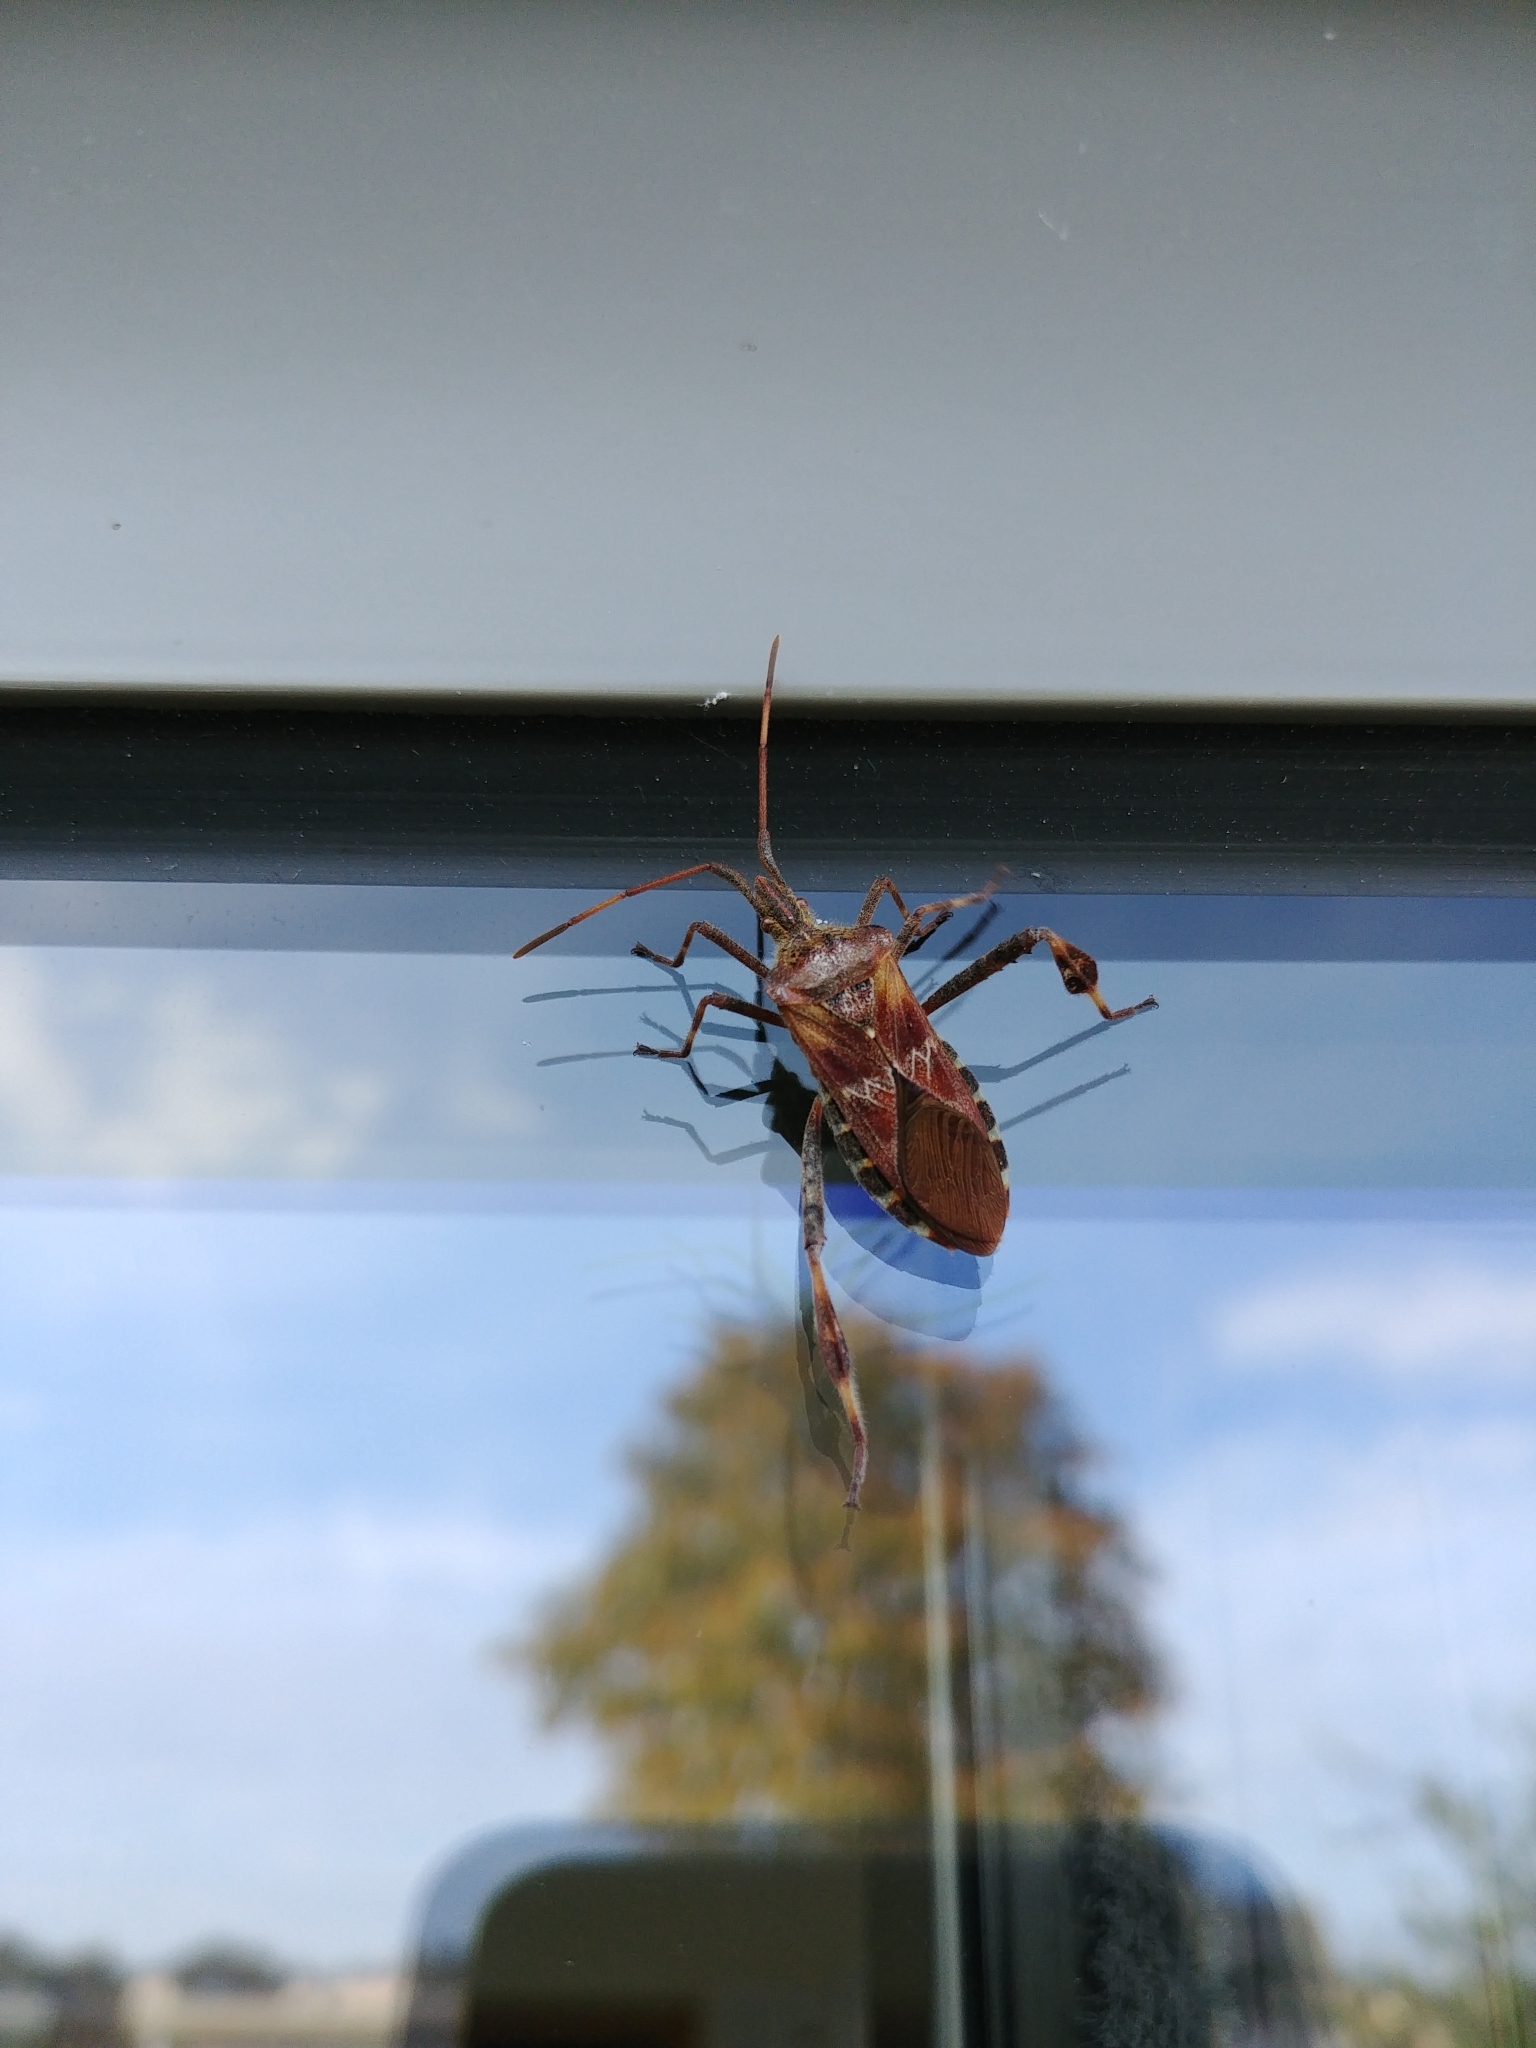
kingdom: Animalia
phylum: Arthropoda
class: Insecta
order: Hemiptera
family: Coreidae
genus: Leptoglossus
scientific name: Leptoglossus occidentalis
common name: Western conifer-seed bug
